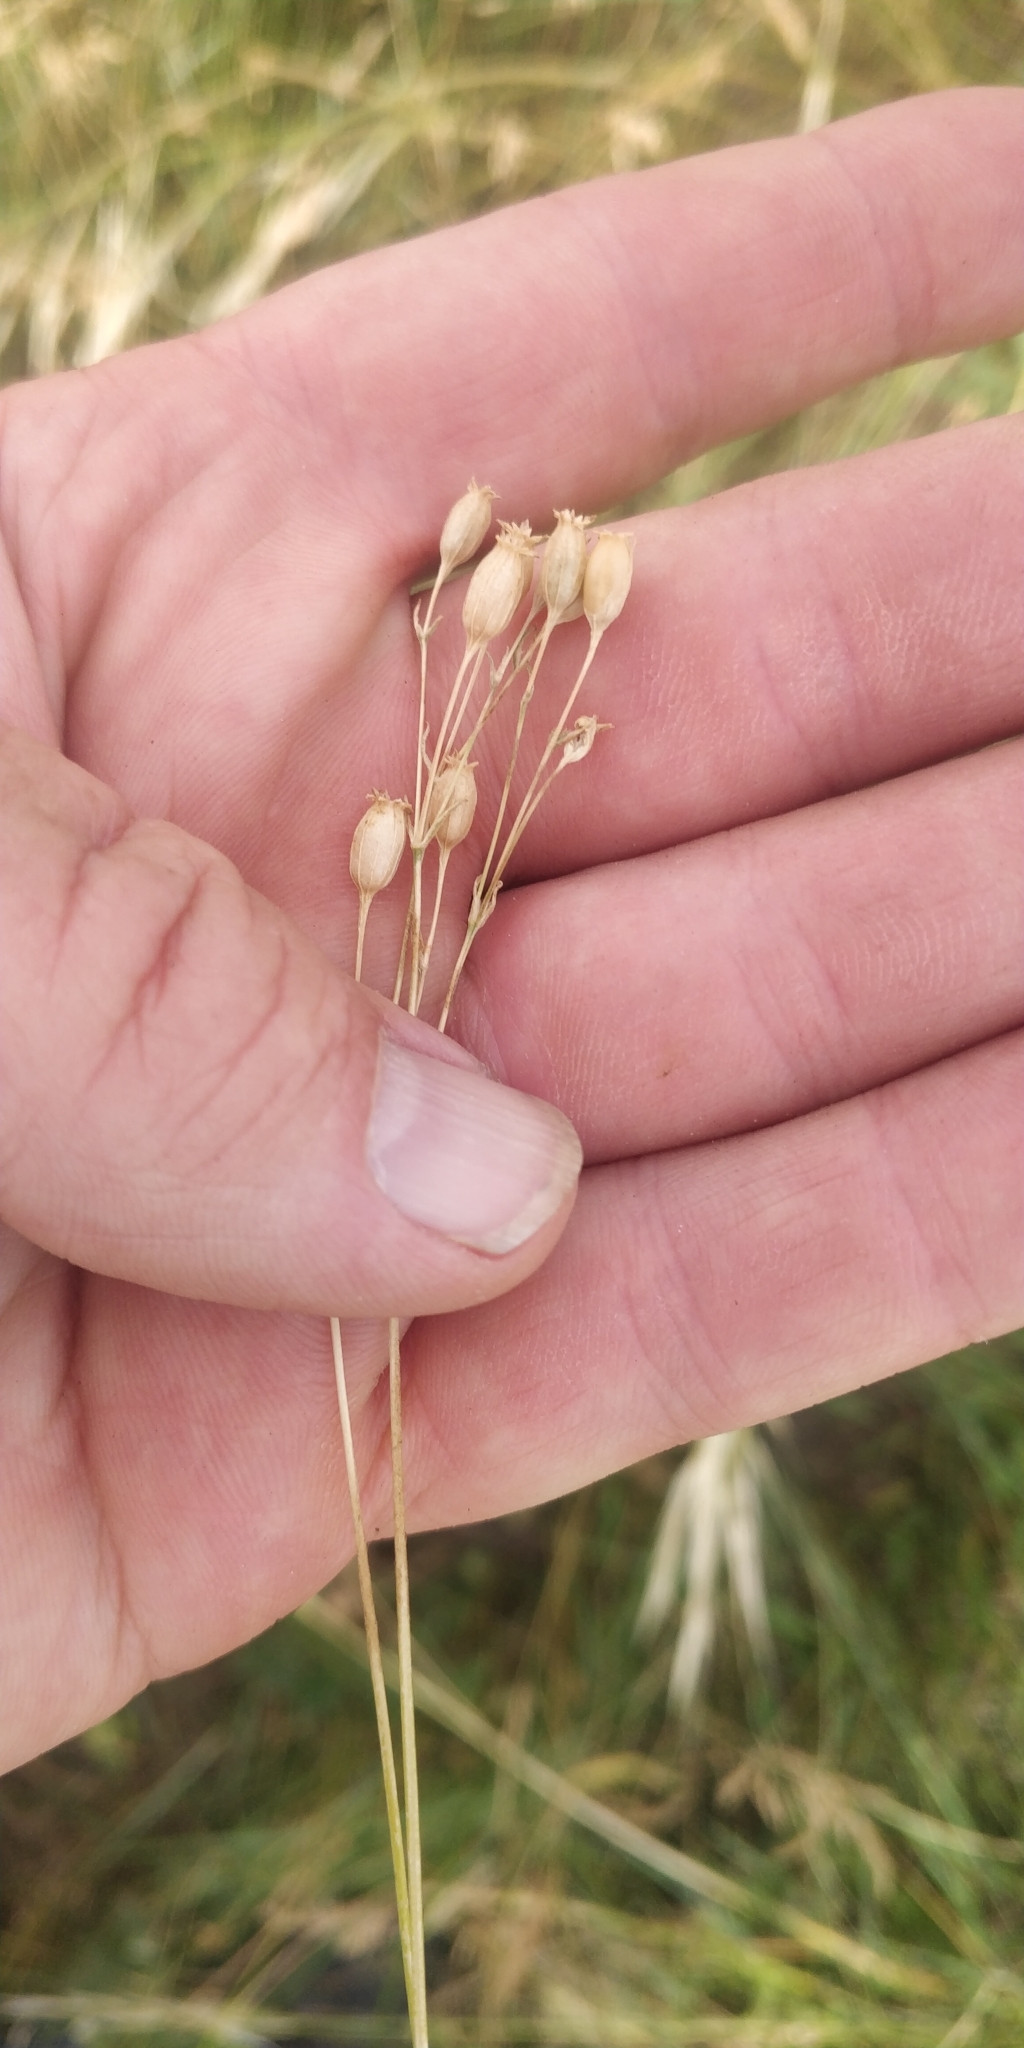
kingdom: Plantae
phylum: Tracheophyta
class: Magnoliopsida
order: Caryophyllales
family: Caryophyllaceae
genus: Silene
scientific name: Silene antirrhina
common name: Sleepy catchfly
